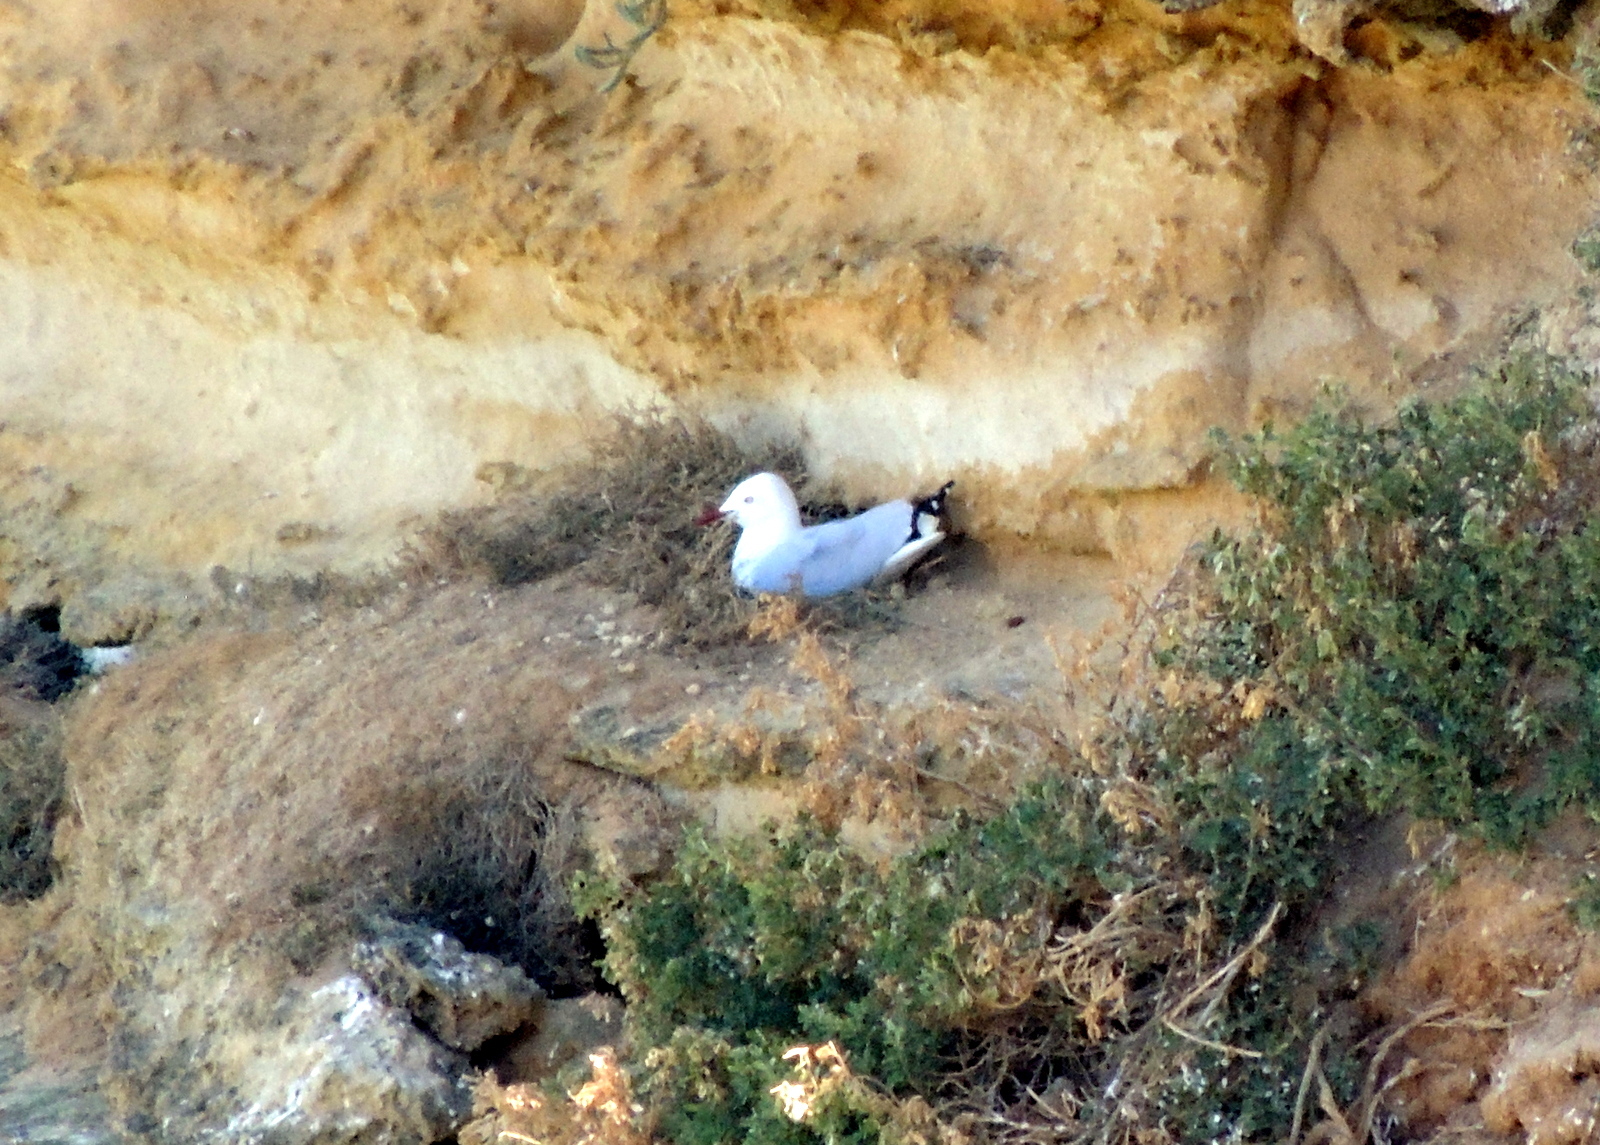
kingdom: Animalia
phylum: Chordata
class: Aves
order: Charadriiformes
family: Laridae
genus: Chroicocephalus
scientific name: Chroicocephalus novaehollandiae
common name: Silver gull
